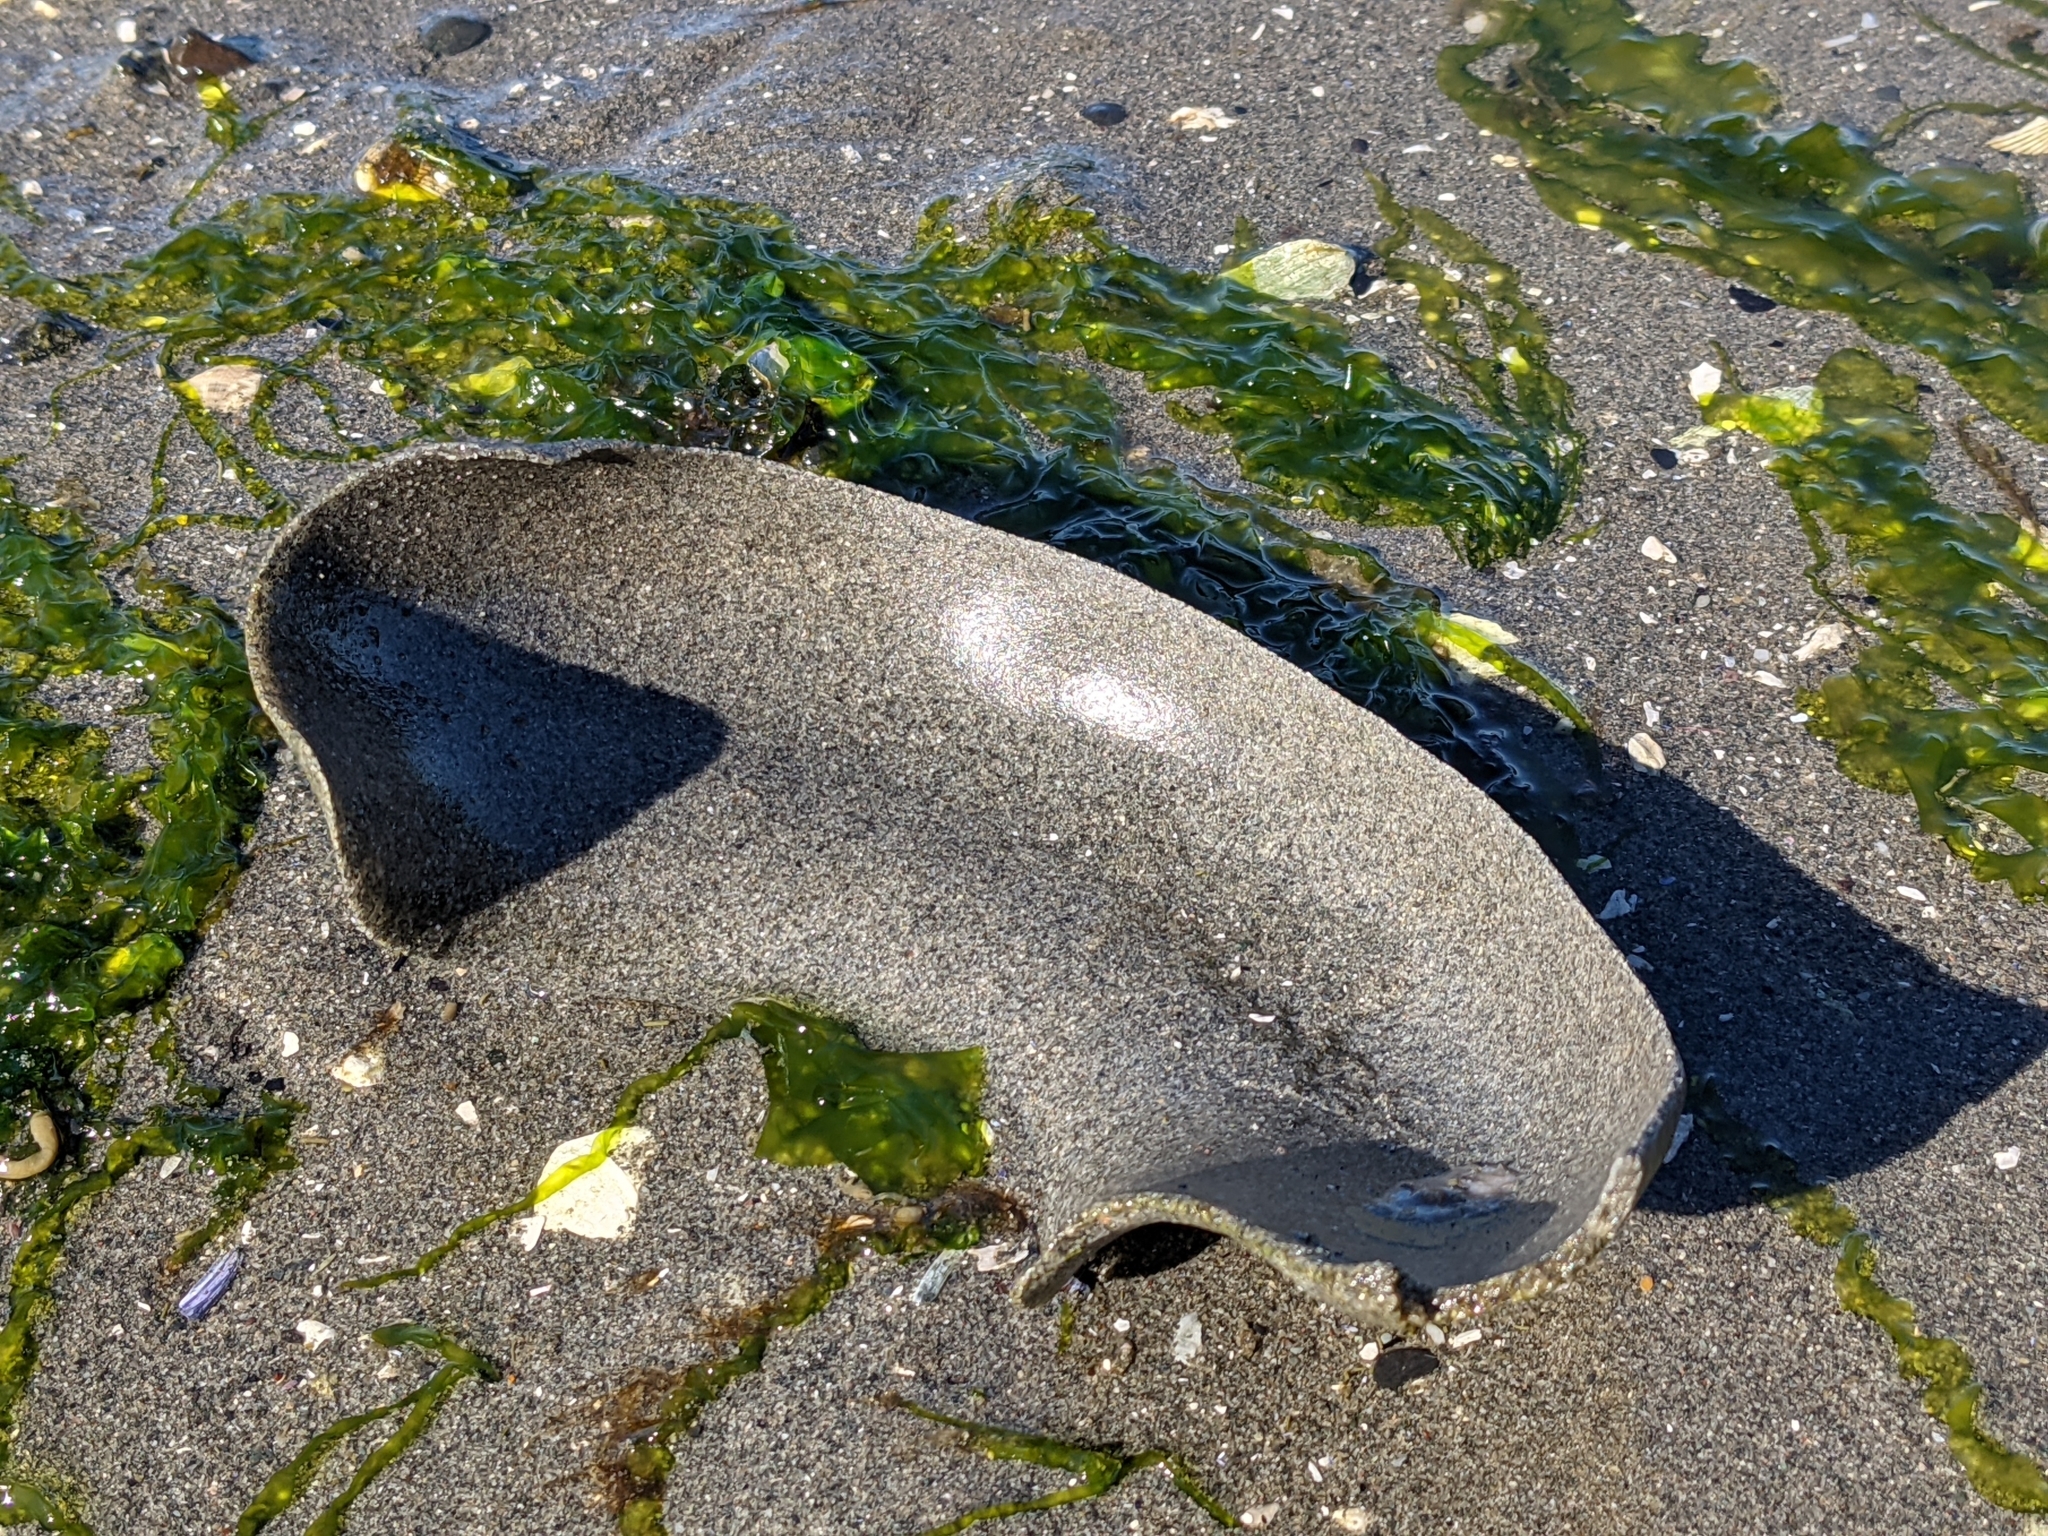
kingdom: Animalia
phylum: Mollusca
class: Gastropoda
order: Littorinimorpha
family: Naticidae
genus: Neverita
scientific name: Neverita lewisii
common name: Lewis' moonsnail
